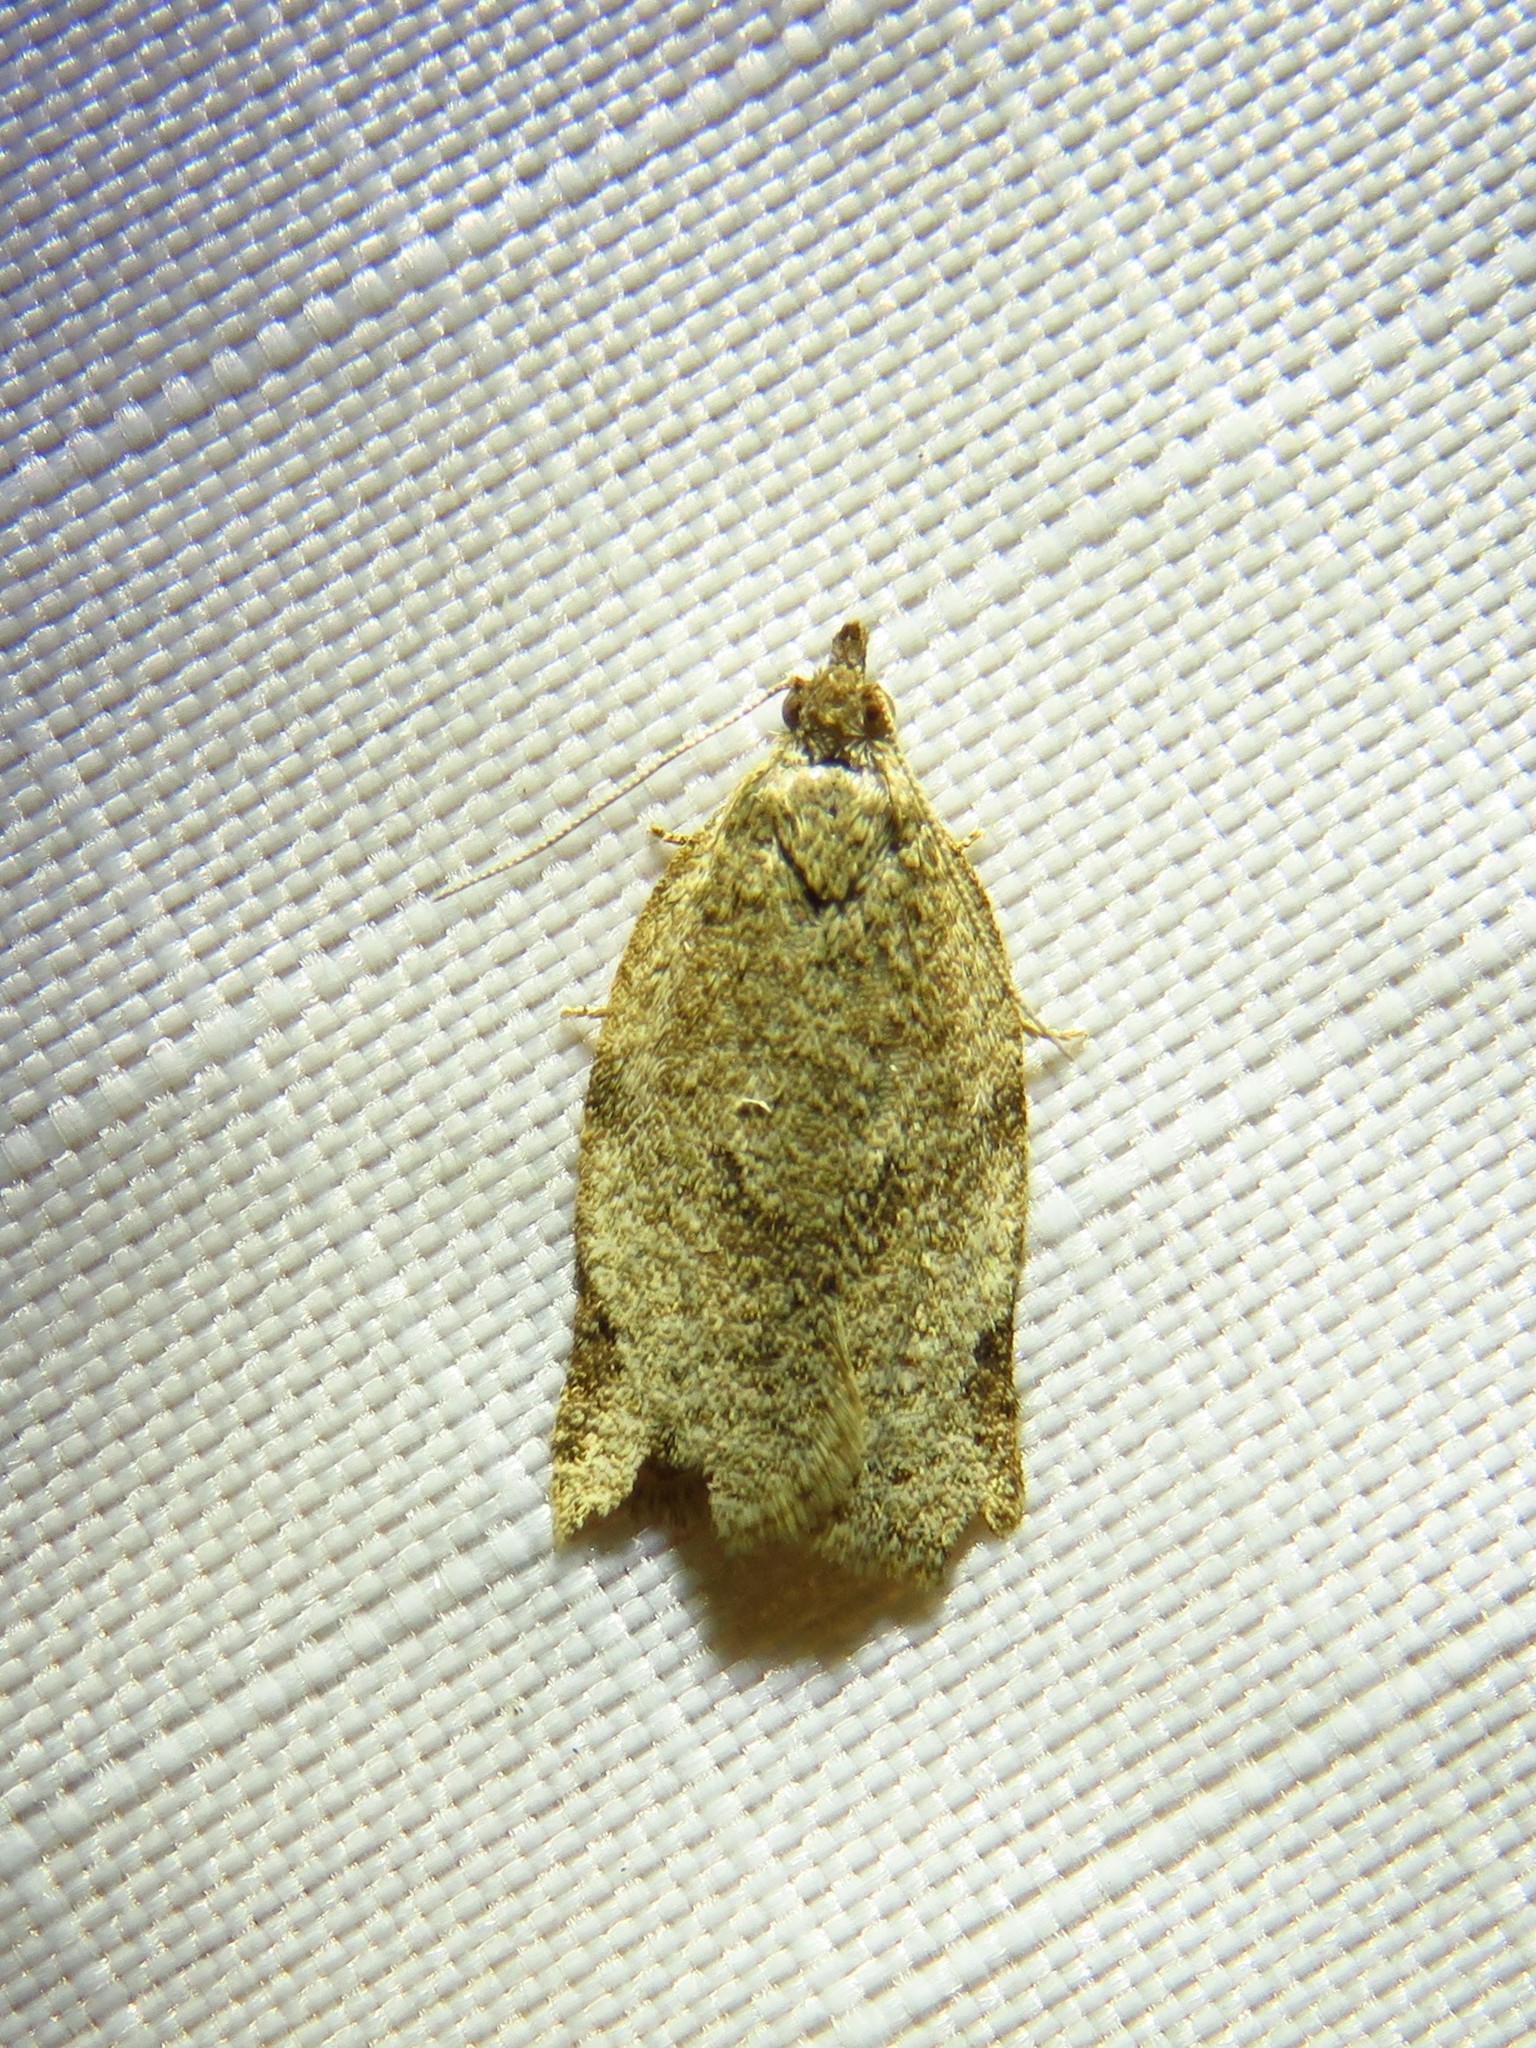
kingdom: Animalia
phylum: Arthropoda
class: Insecta
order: Lepidoptera
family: Tortricidae
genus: Clepsis
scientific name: Clepsis virescana
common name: Greenish apple moth
